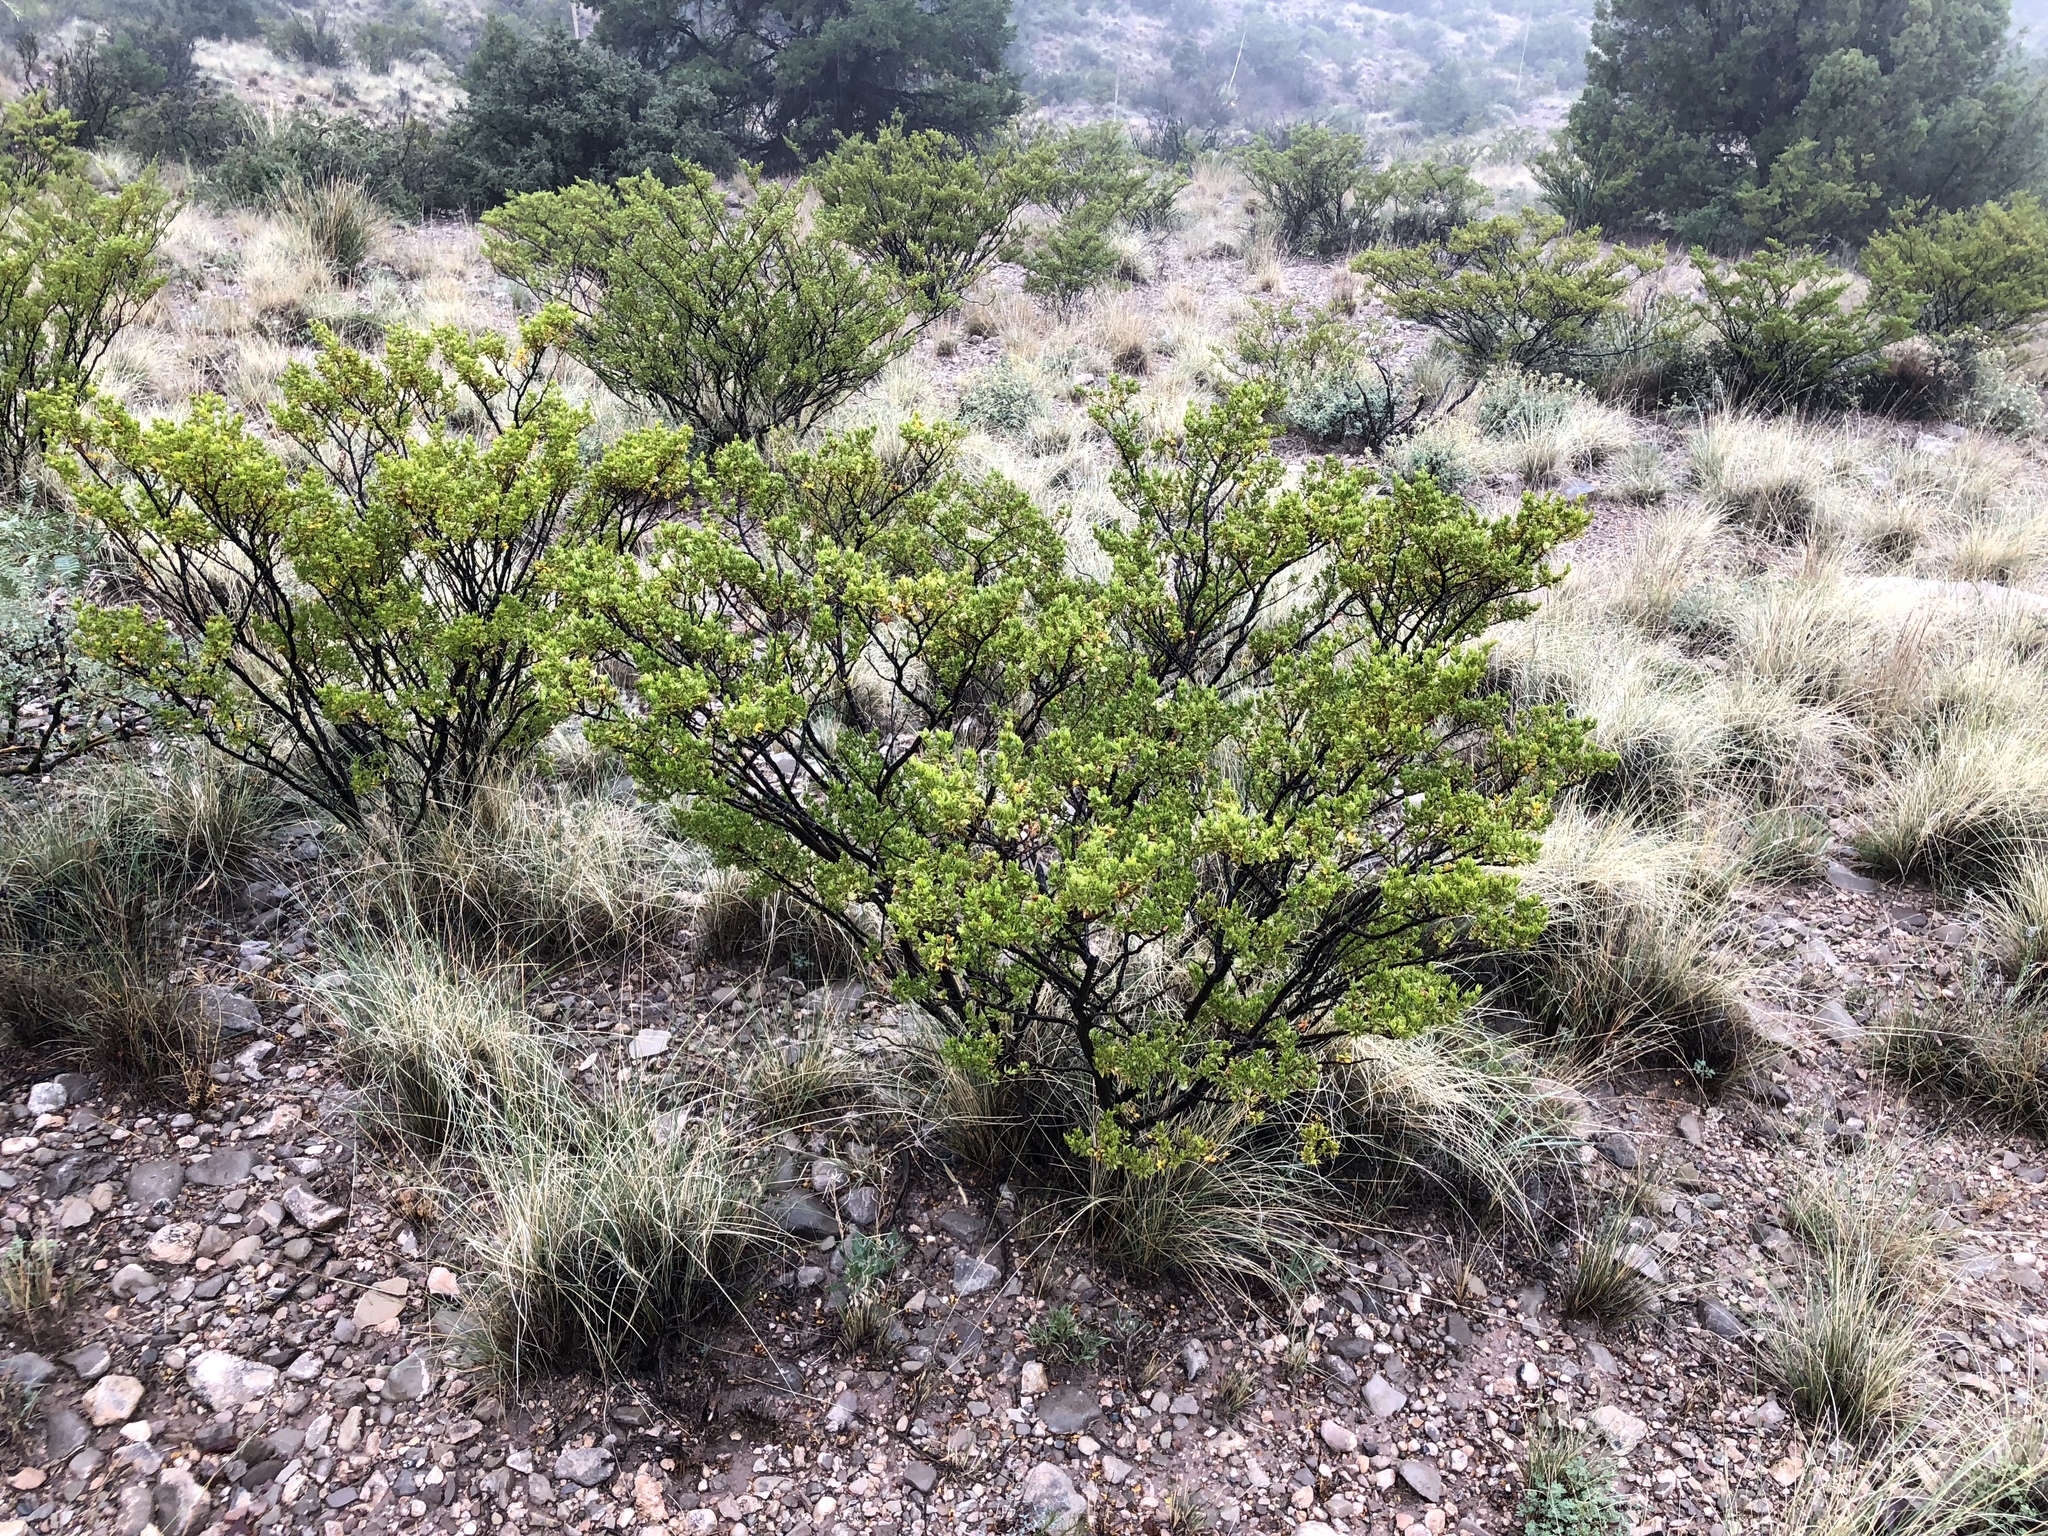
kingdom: Plantae
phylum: Tracheophyta
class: Magnoliopsida
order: Zygophyllales
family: Zygophyllaceae
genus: Larrea
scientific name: Larrea tridentata
